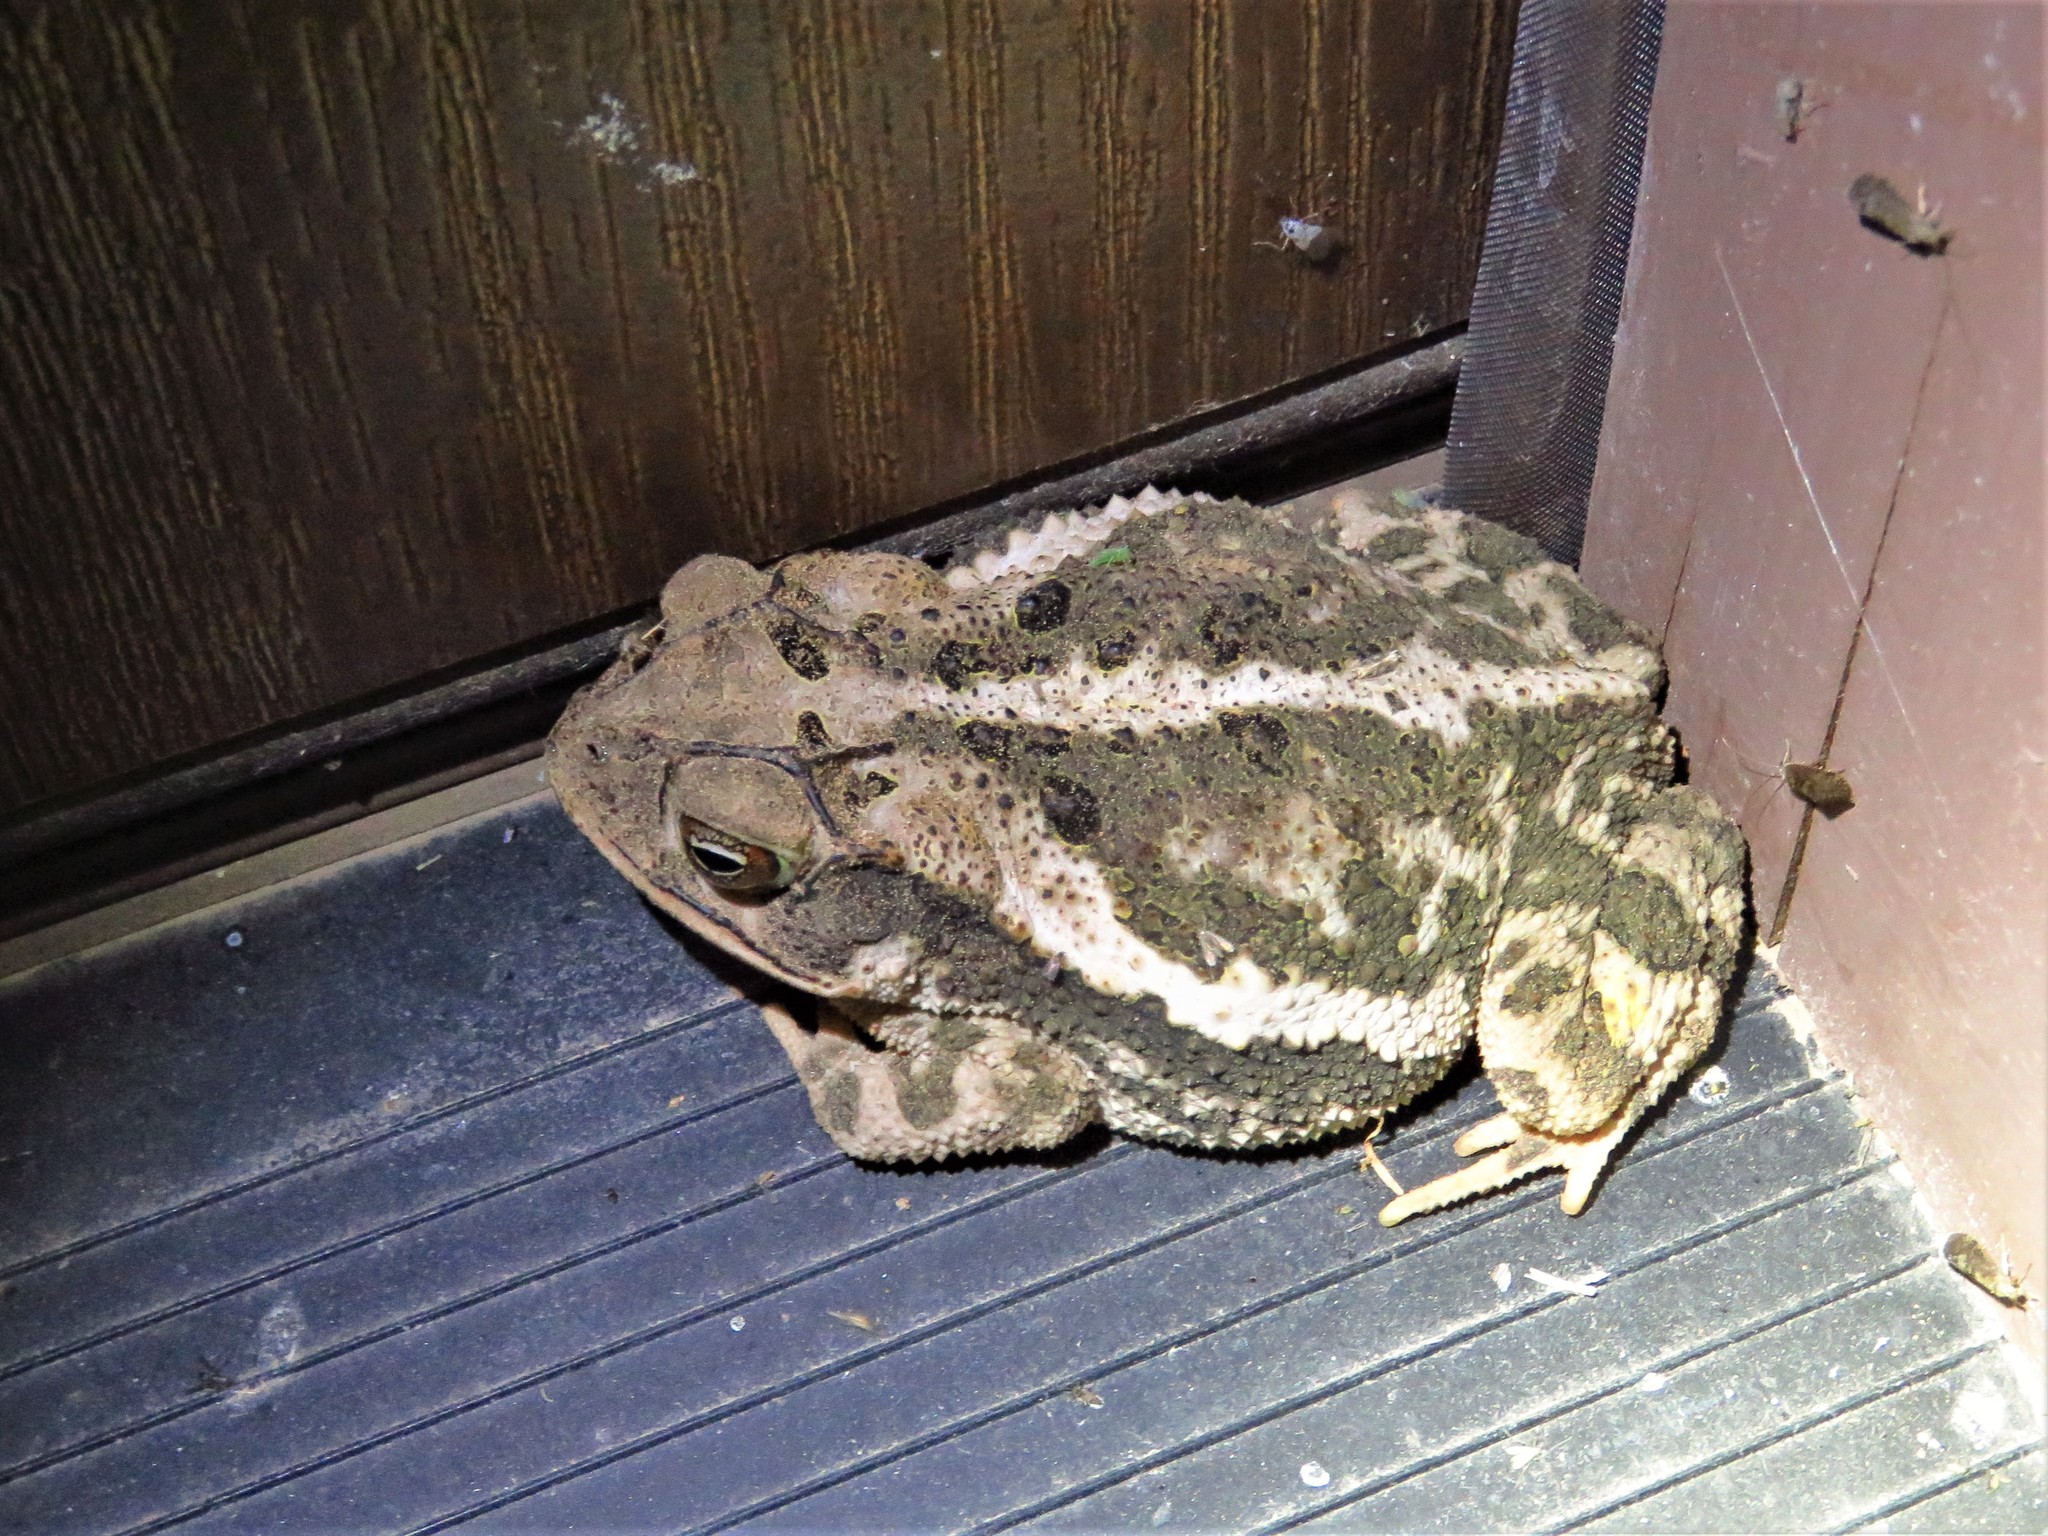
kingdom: Animalia
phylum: Chordata
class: Amphibia
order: Anura
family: Bufonidae
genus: Incilius
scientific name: Incilius nebulifer
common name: Gulf coast toad
